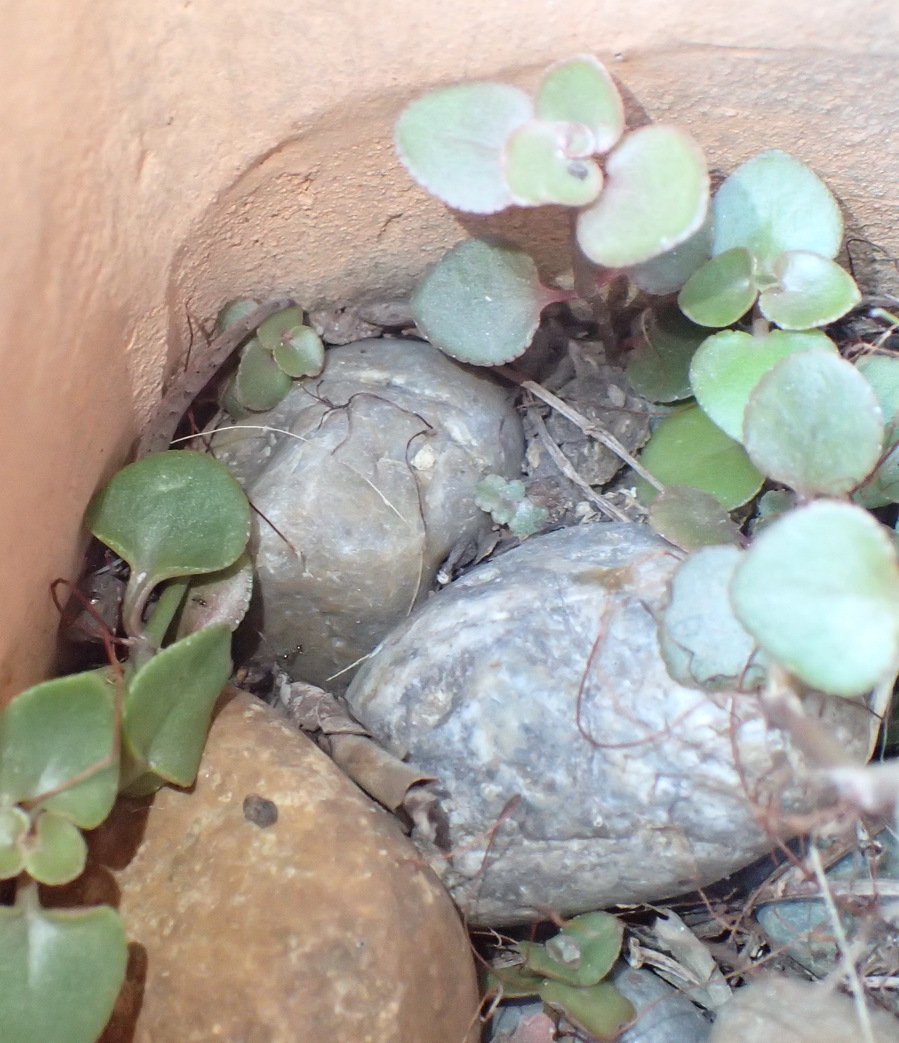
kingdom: Animalia
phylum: Chordata
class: Squamata
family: Gekkonidae
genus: Afrogecko
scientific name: Afrogecko porphyreus
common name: Marbled leaf-toed gecko
